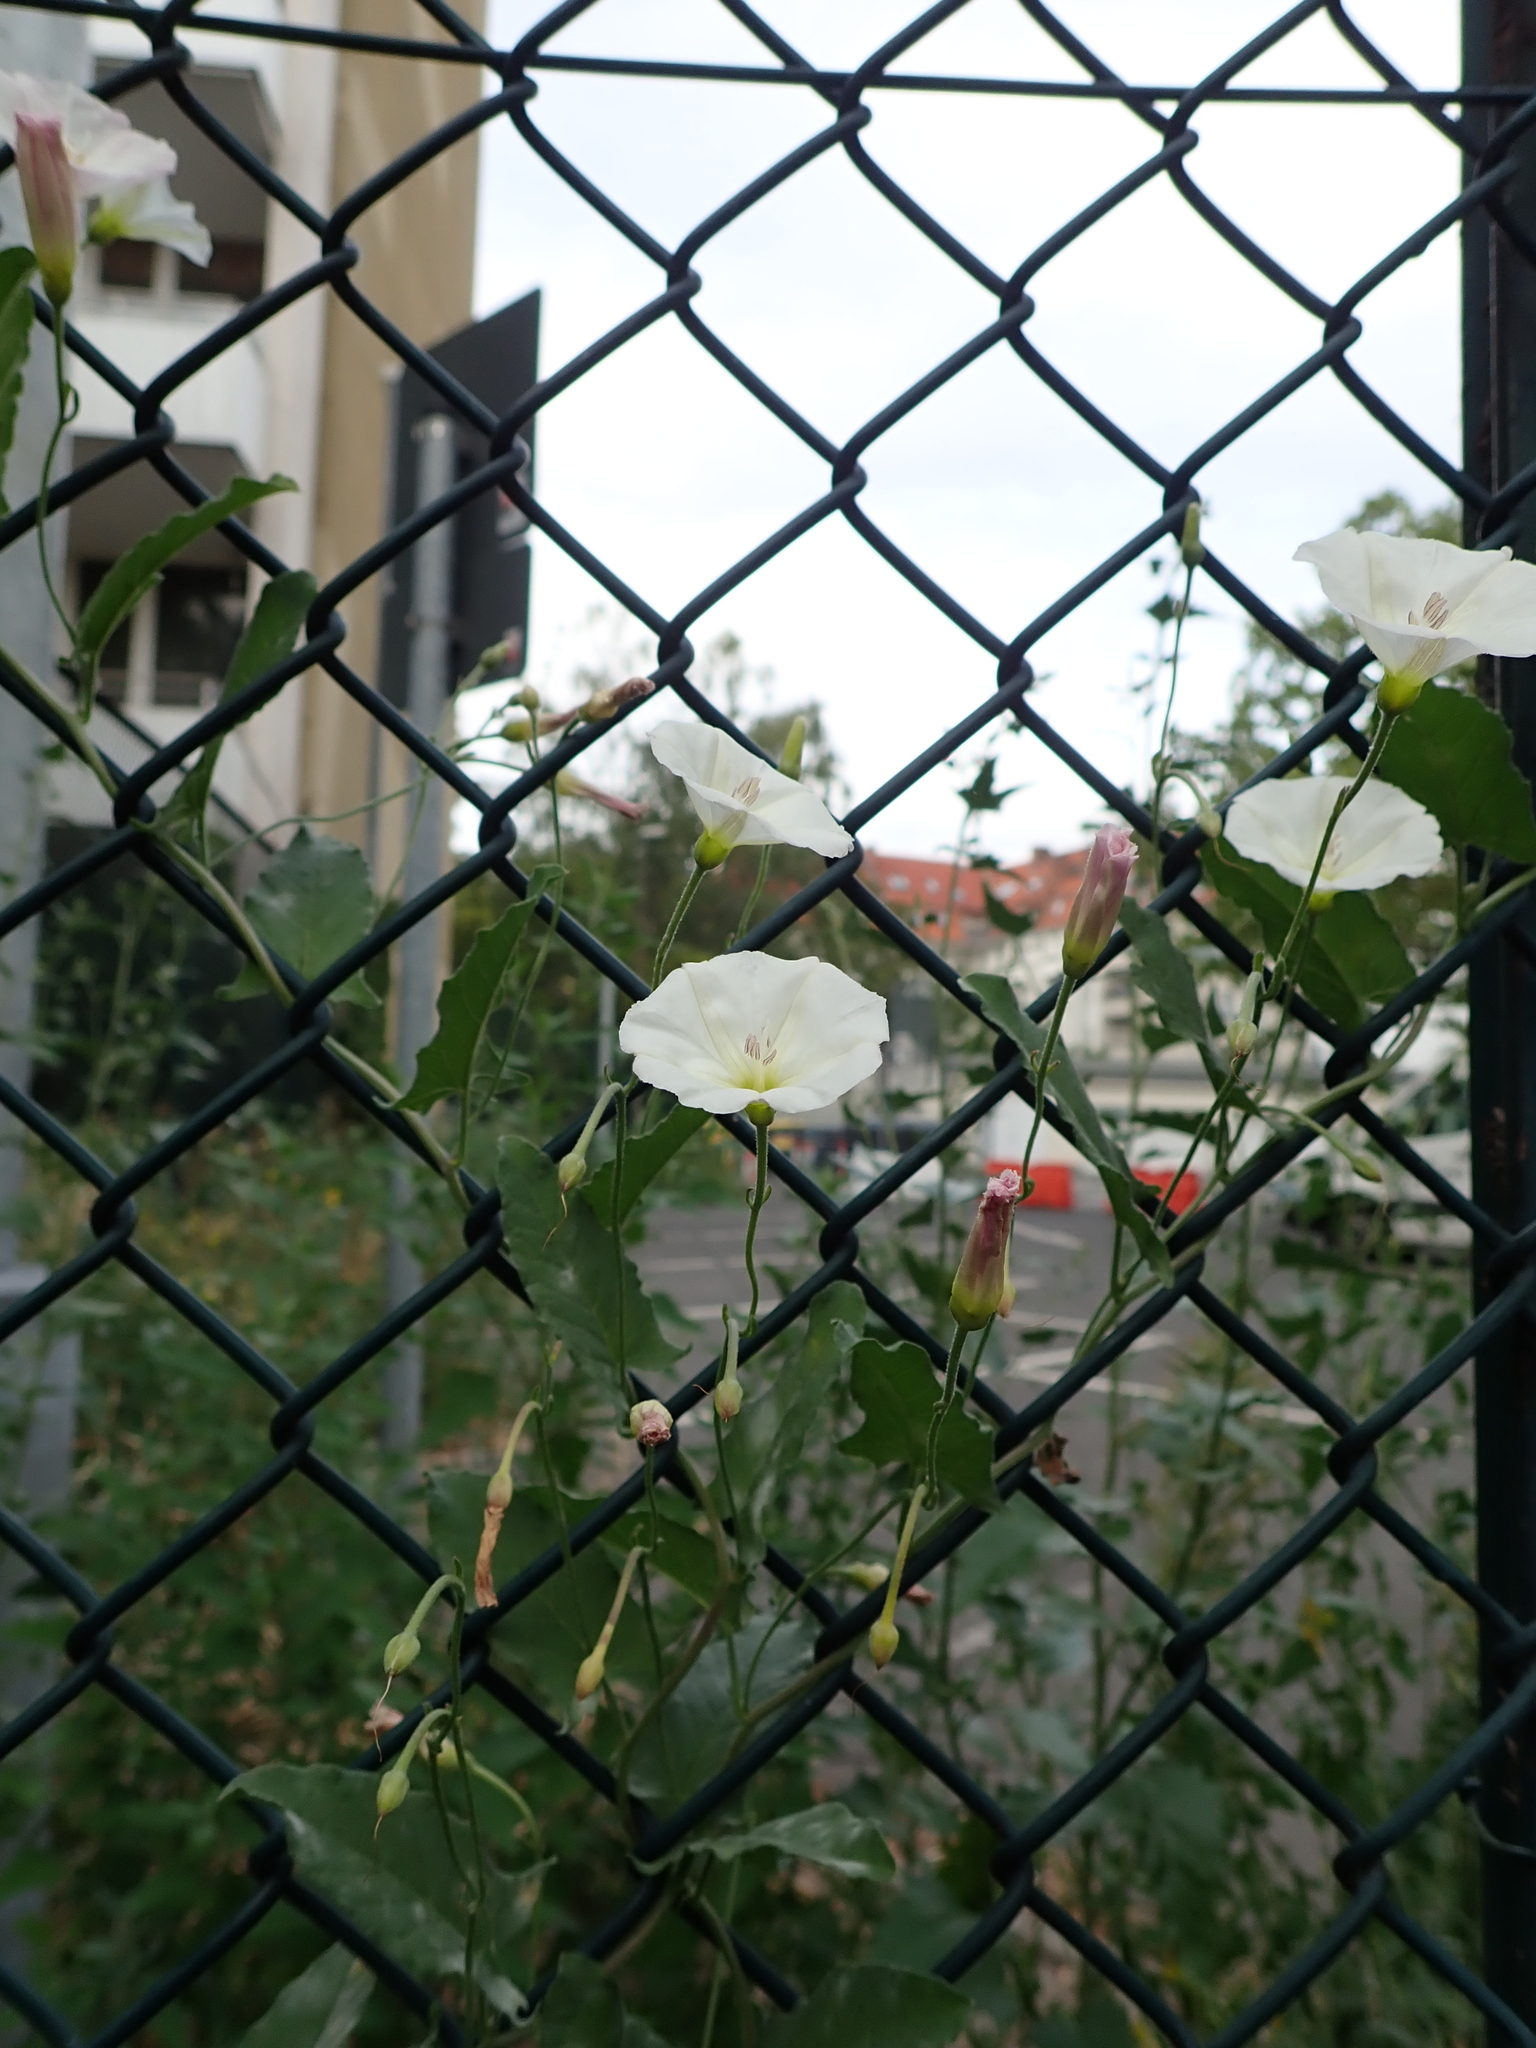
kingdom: Plantae
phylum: Tracheophyta
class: Magnoliopsida
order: Solanales
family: Convolvulaceae
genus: Convolvulus
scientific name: Convolvulus arvensis
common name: Field bindweed
